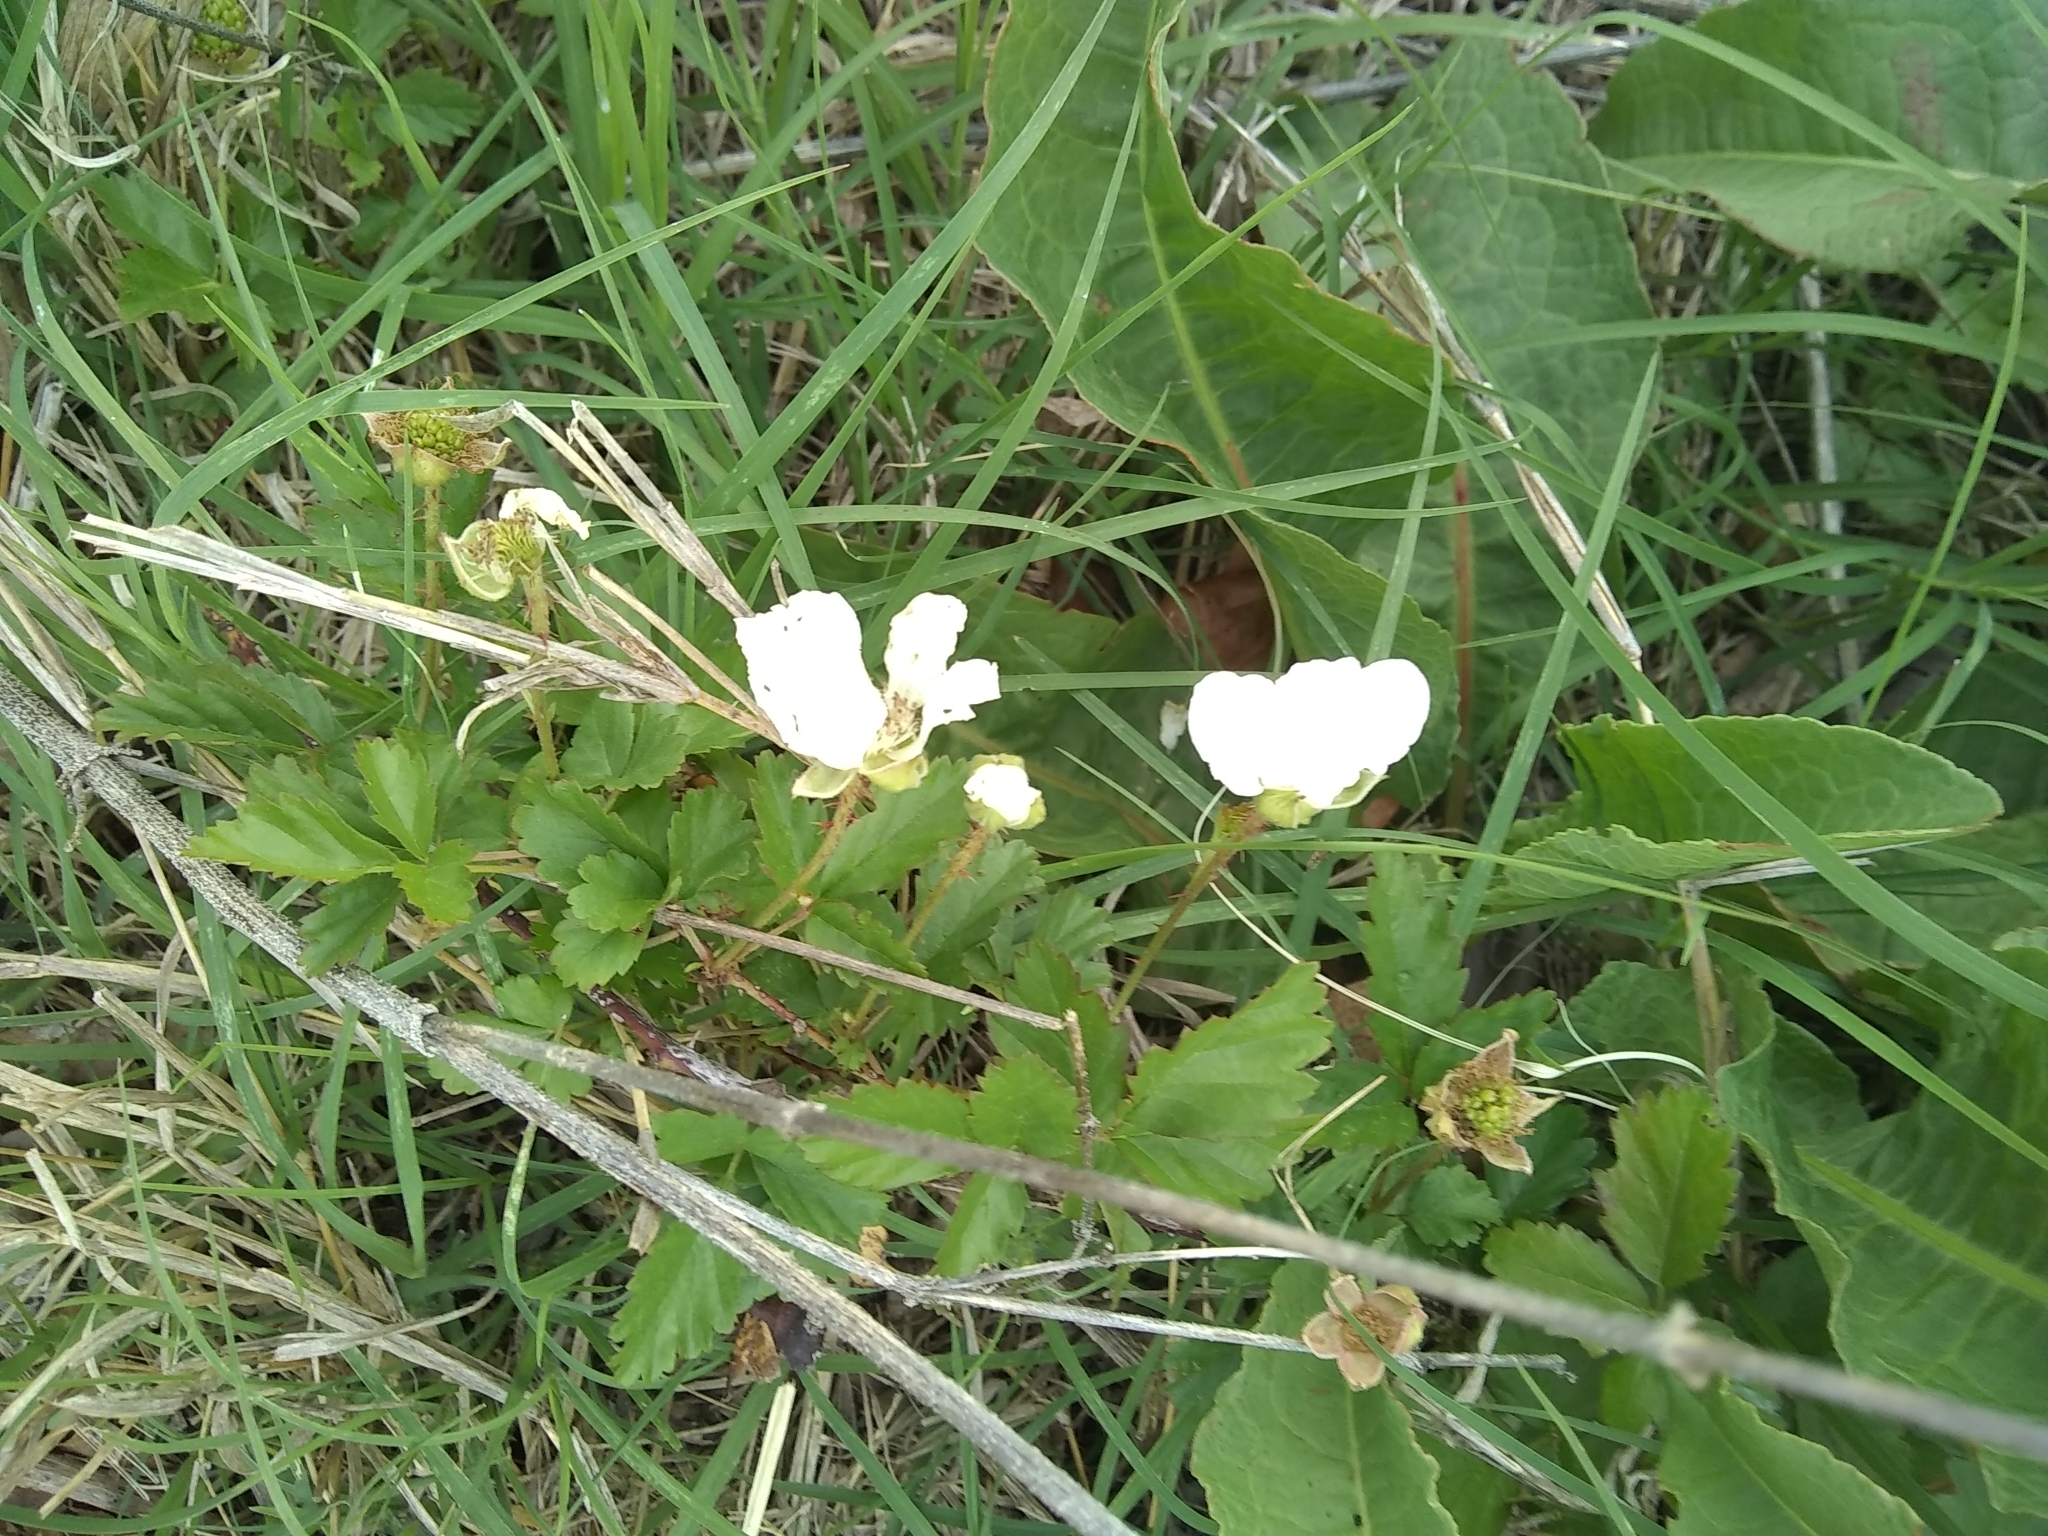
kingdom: Plantae
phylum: Tracheophyta
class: Magnoliopsida
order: Rosales
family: Rosaceae
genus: Rubus
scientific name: Rubus trivialis
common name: Southern dewberry
